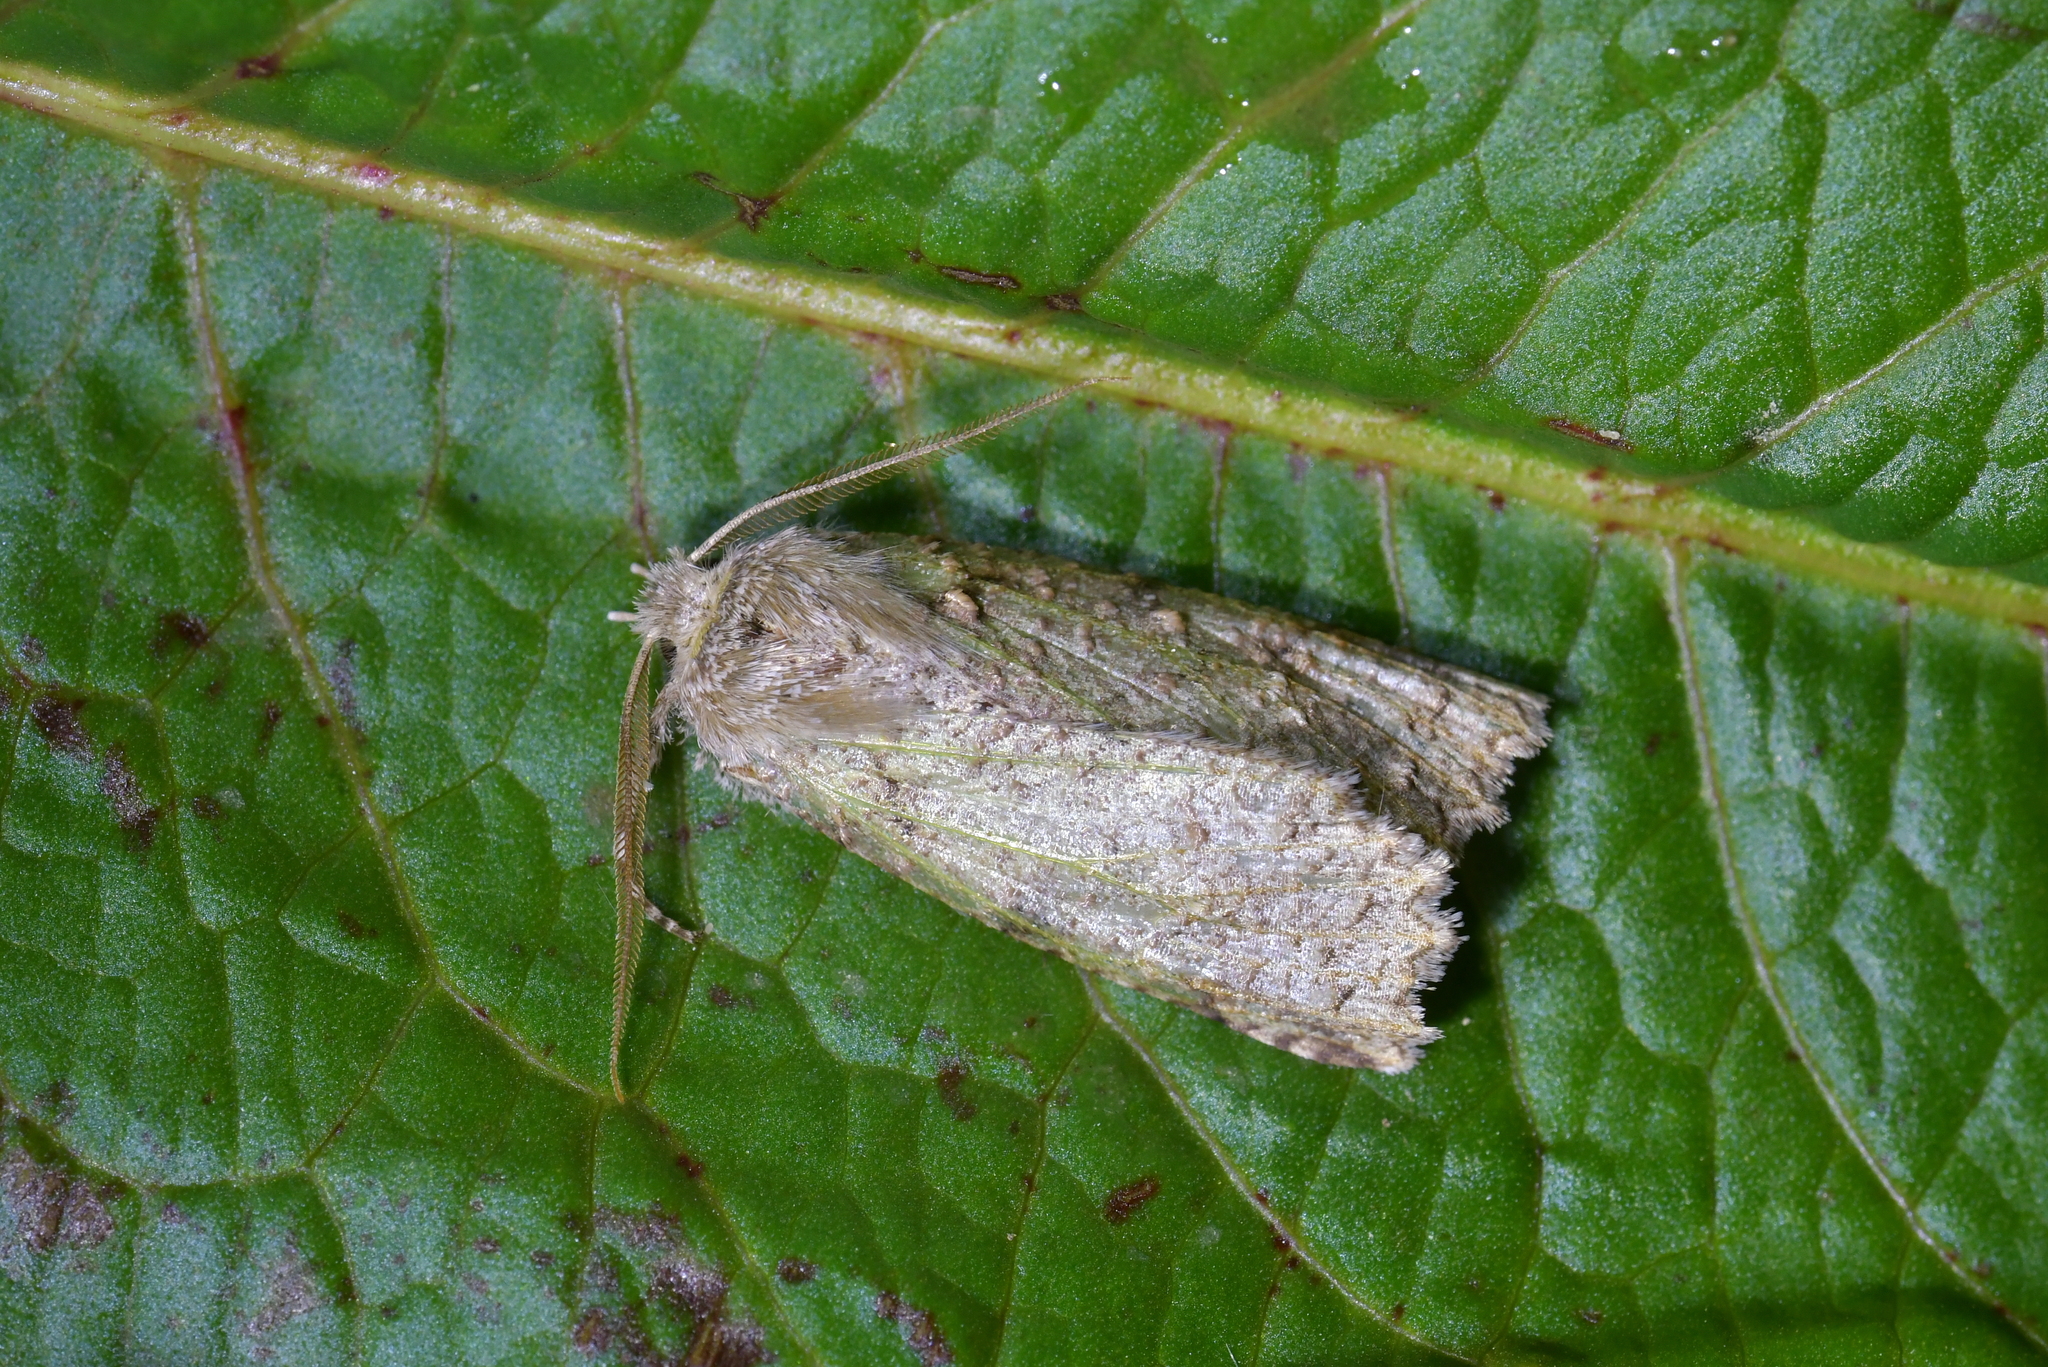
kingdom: Animalia
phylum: Arthropoda
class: Insecta
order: Lepidoptera
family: Geometridae
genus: Declana
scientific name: Declana floccosa
